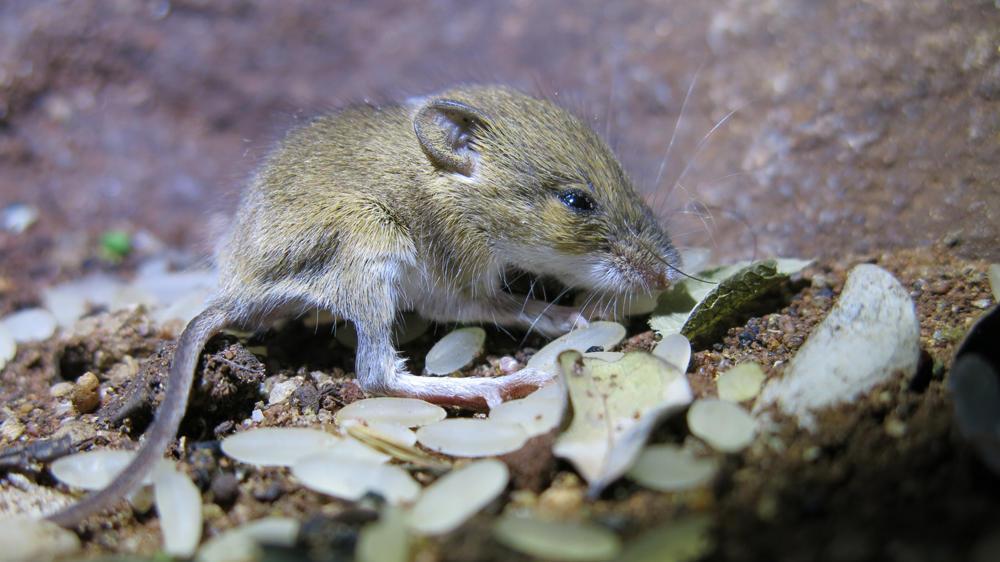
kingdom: Animalia
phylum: Chordata
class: Mammalia
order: Rodentia
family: Muridae
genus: Mus
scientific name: Mus minutoides
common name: Southern african pygmy mouse
